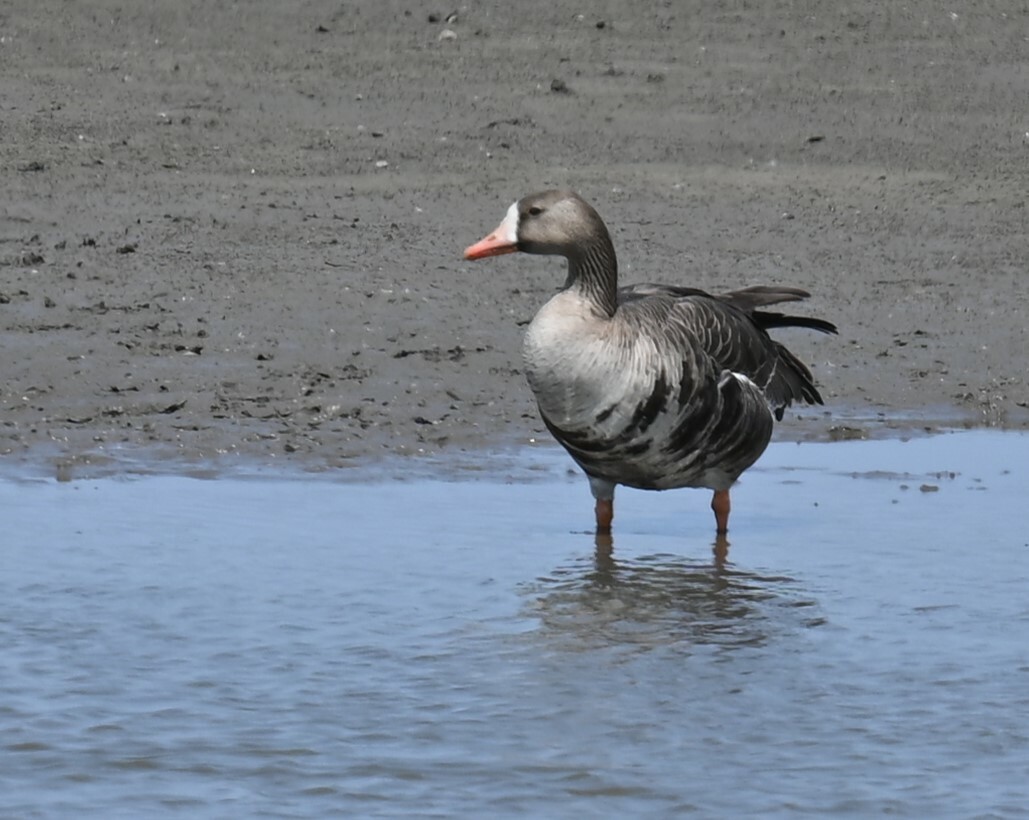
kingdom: Animalia
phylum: Chordata
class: Aves
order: Anseriformes
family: Anatidae
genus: Anser
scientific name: Anser albifrons
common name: Greater white-fronted goose
